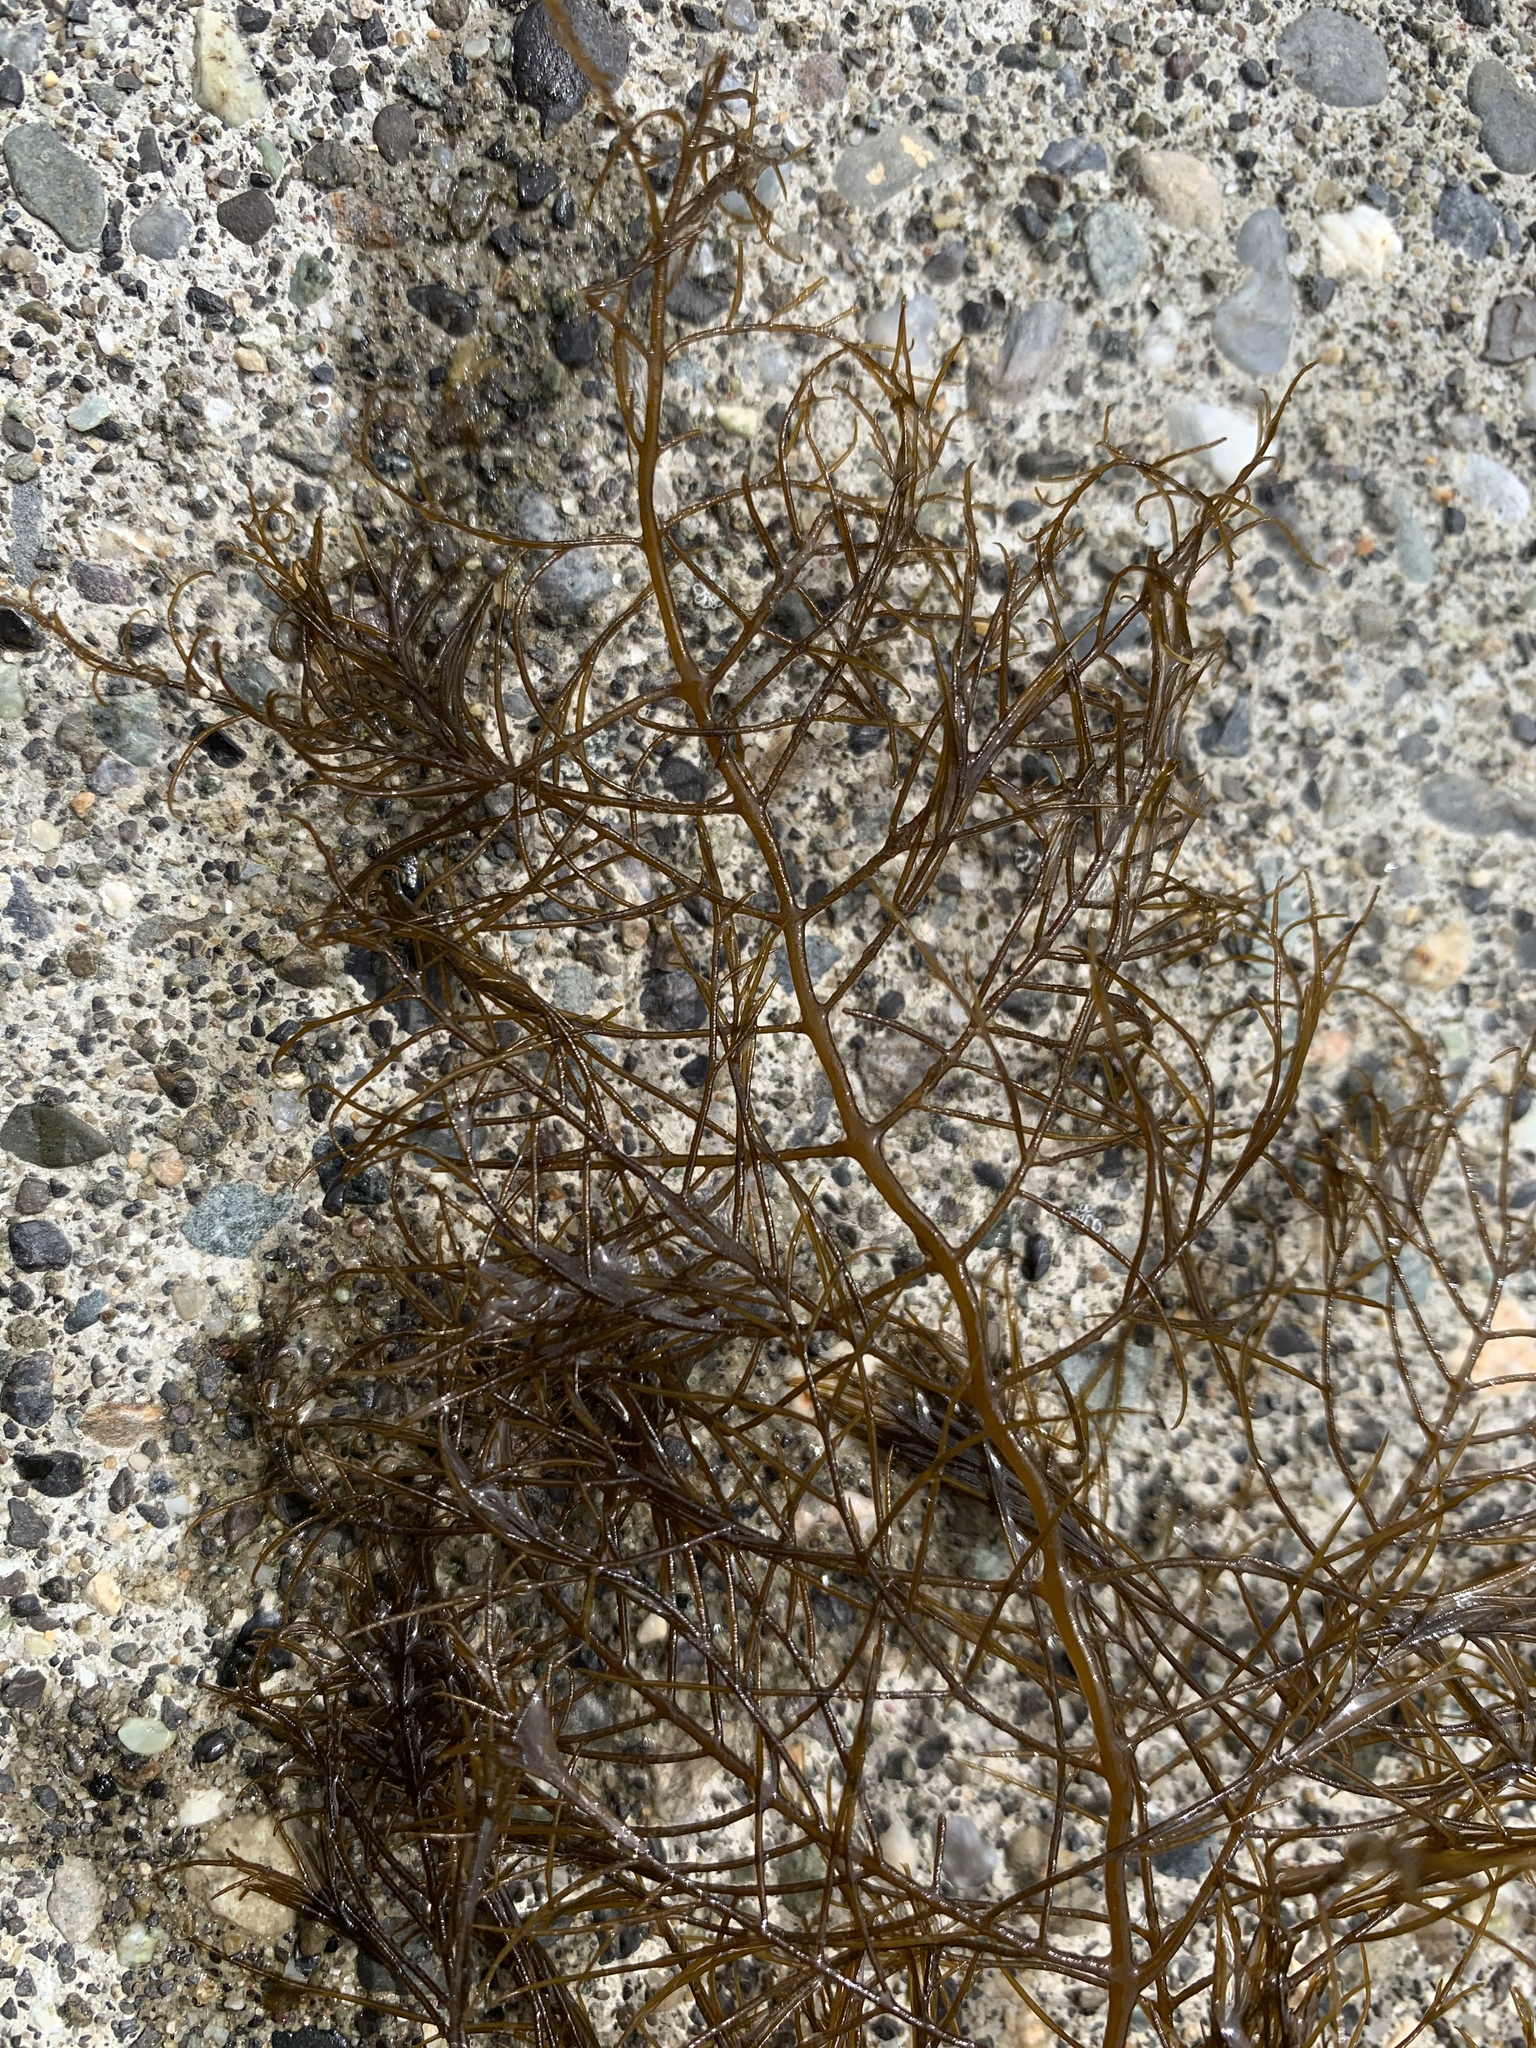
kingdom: Chromista
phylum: Ochrophyta
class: Phaeophyceae
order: Desmarestiales
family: Desmarestiaceae
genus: Desmarestia
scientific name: Desmarestia aculeata
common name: Witch's hair
